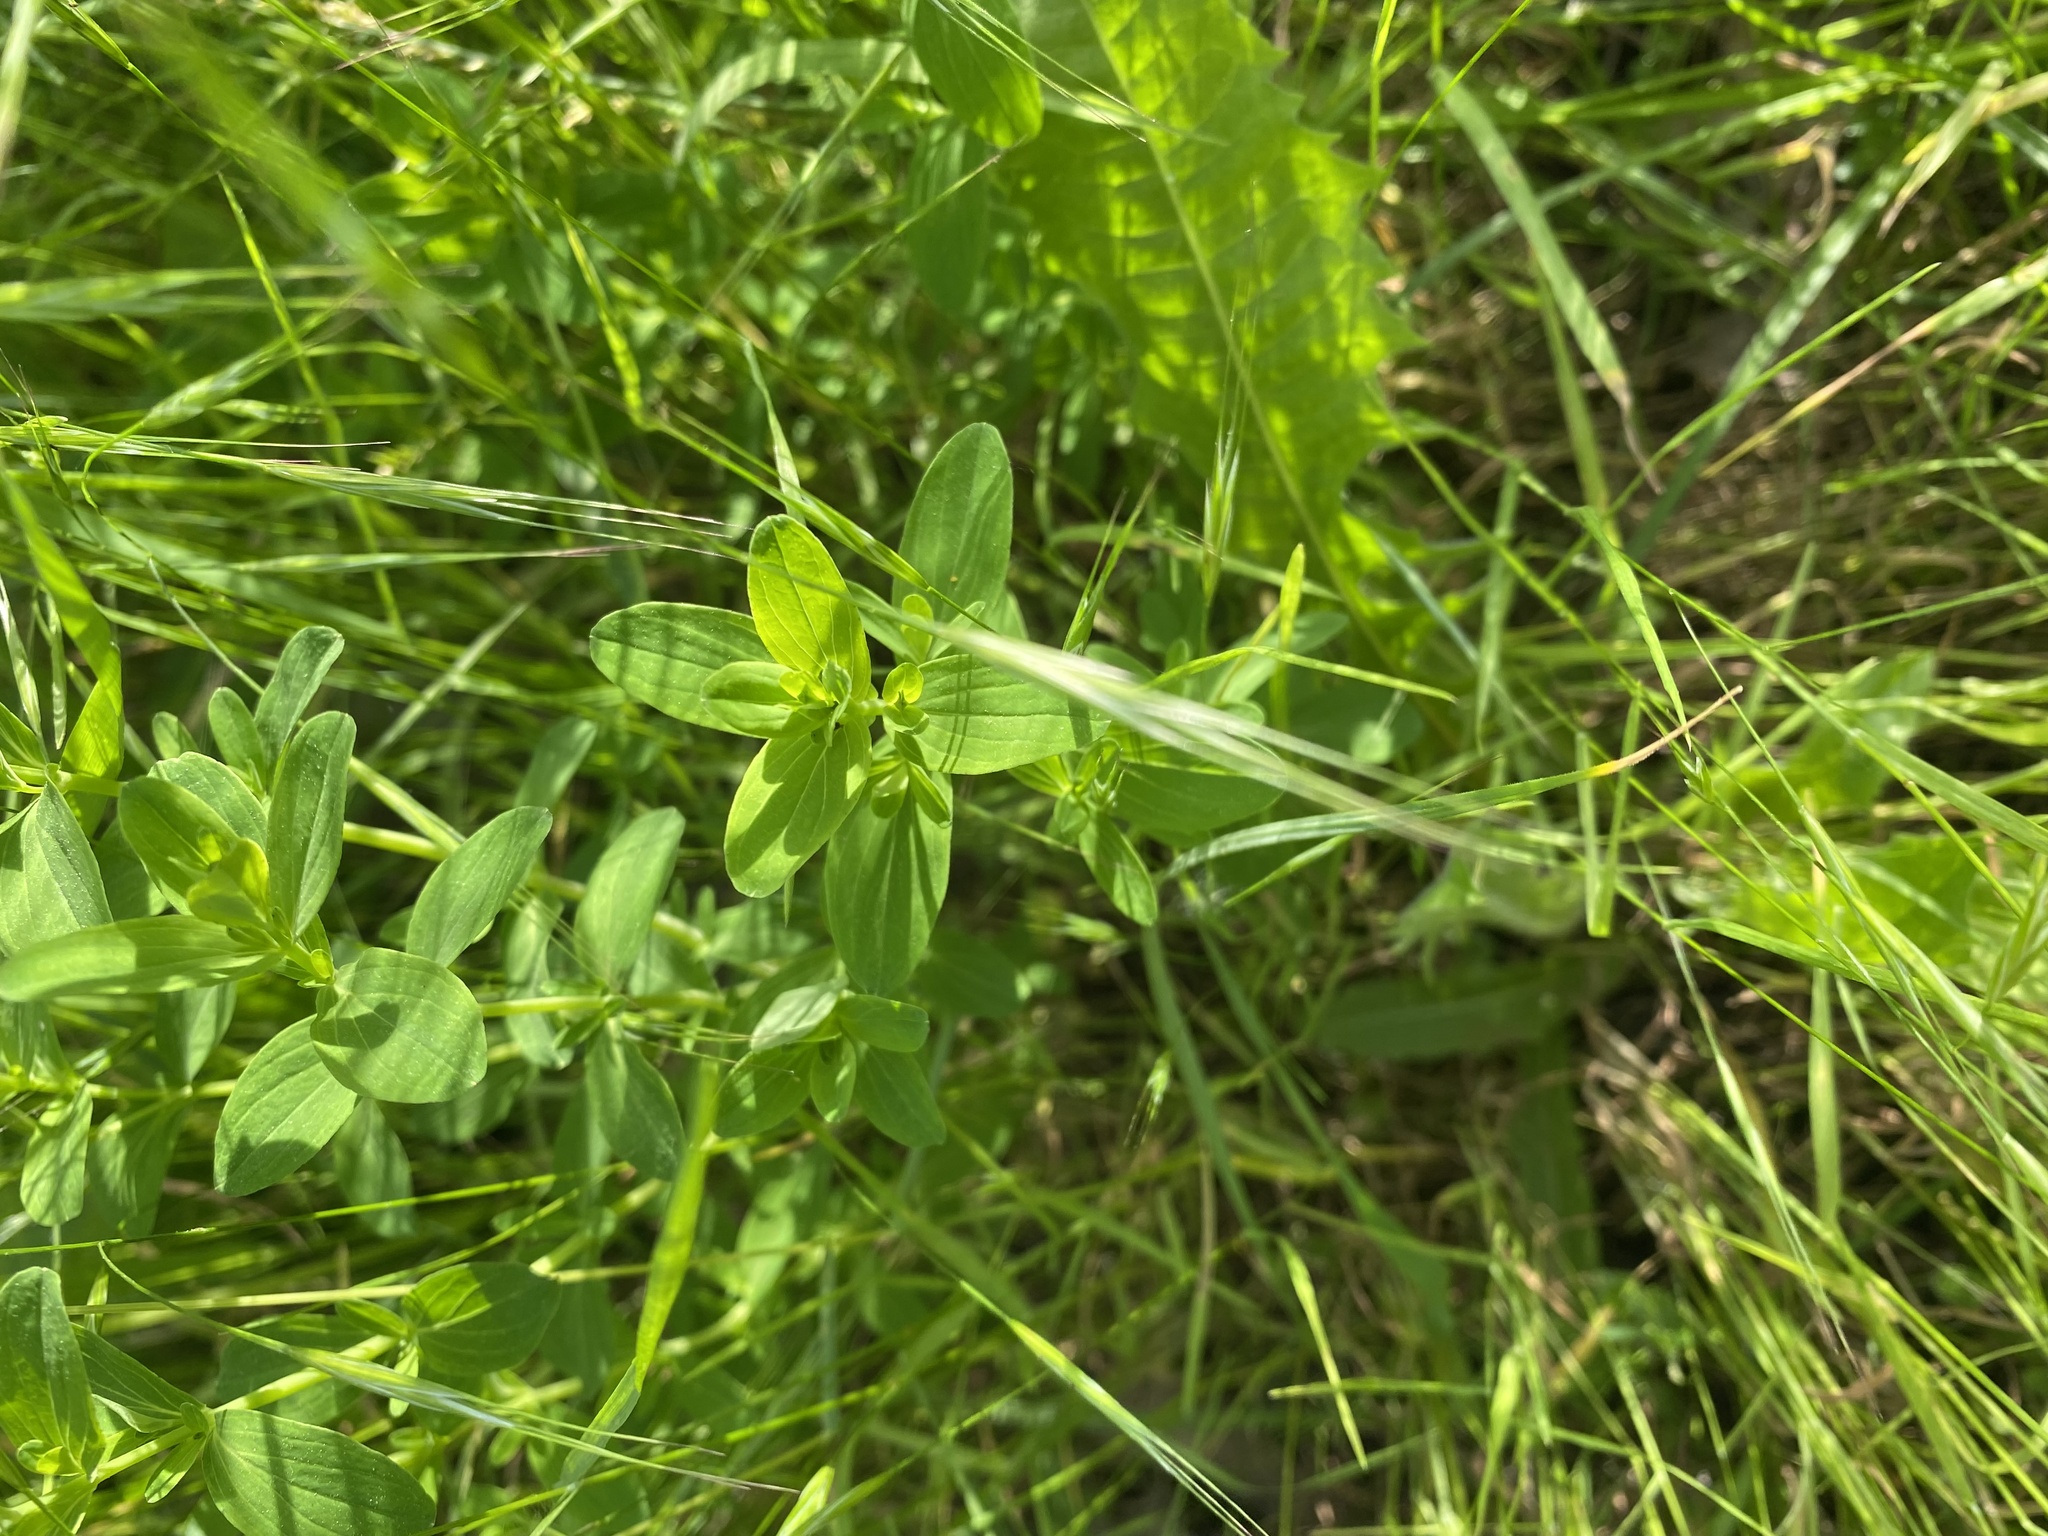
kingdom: Plantae
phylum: Tracheophyta
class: Magnoliopsida
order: Malpighiales
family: Hypericaceae
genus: Hypericum
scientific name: Hypericum perforatum
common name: Common st. johnswort
